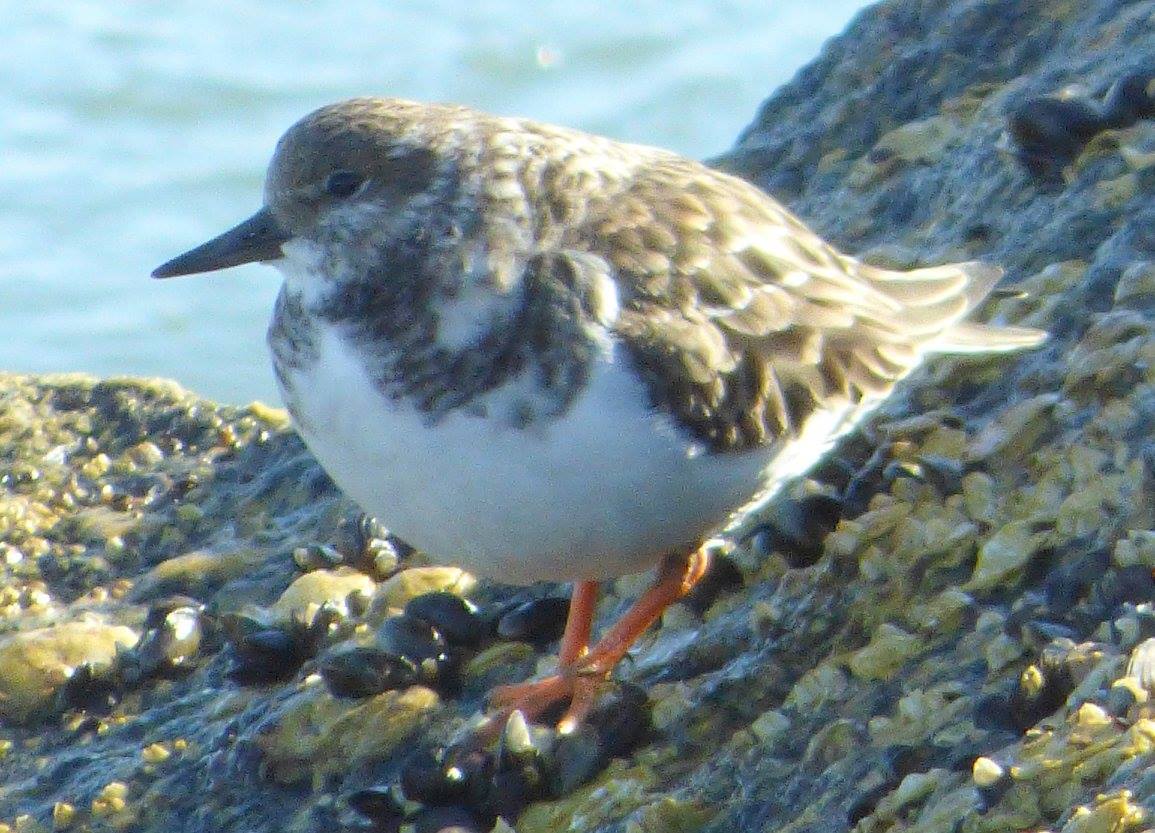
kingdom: Animalia
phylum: Chordata
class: Aves
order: Charadriiformes
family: Scolopacidae
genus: Arenaria
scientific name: Arenaria interpres
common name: Ruddy turnstone
